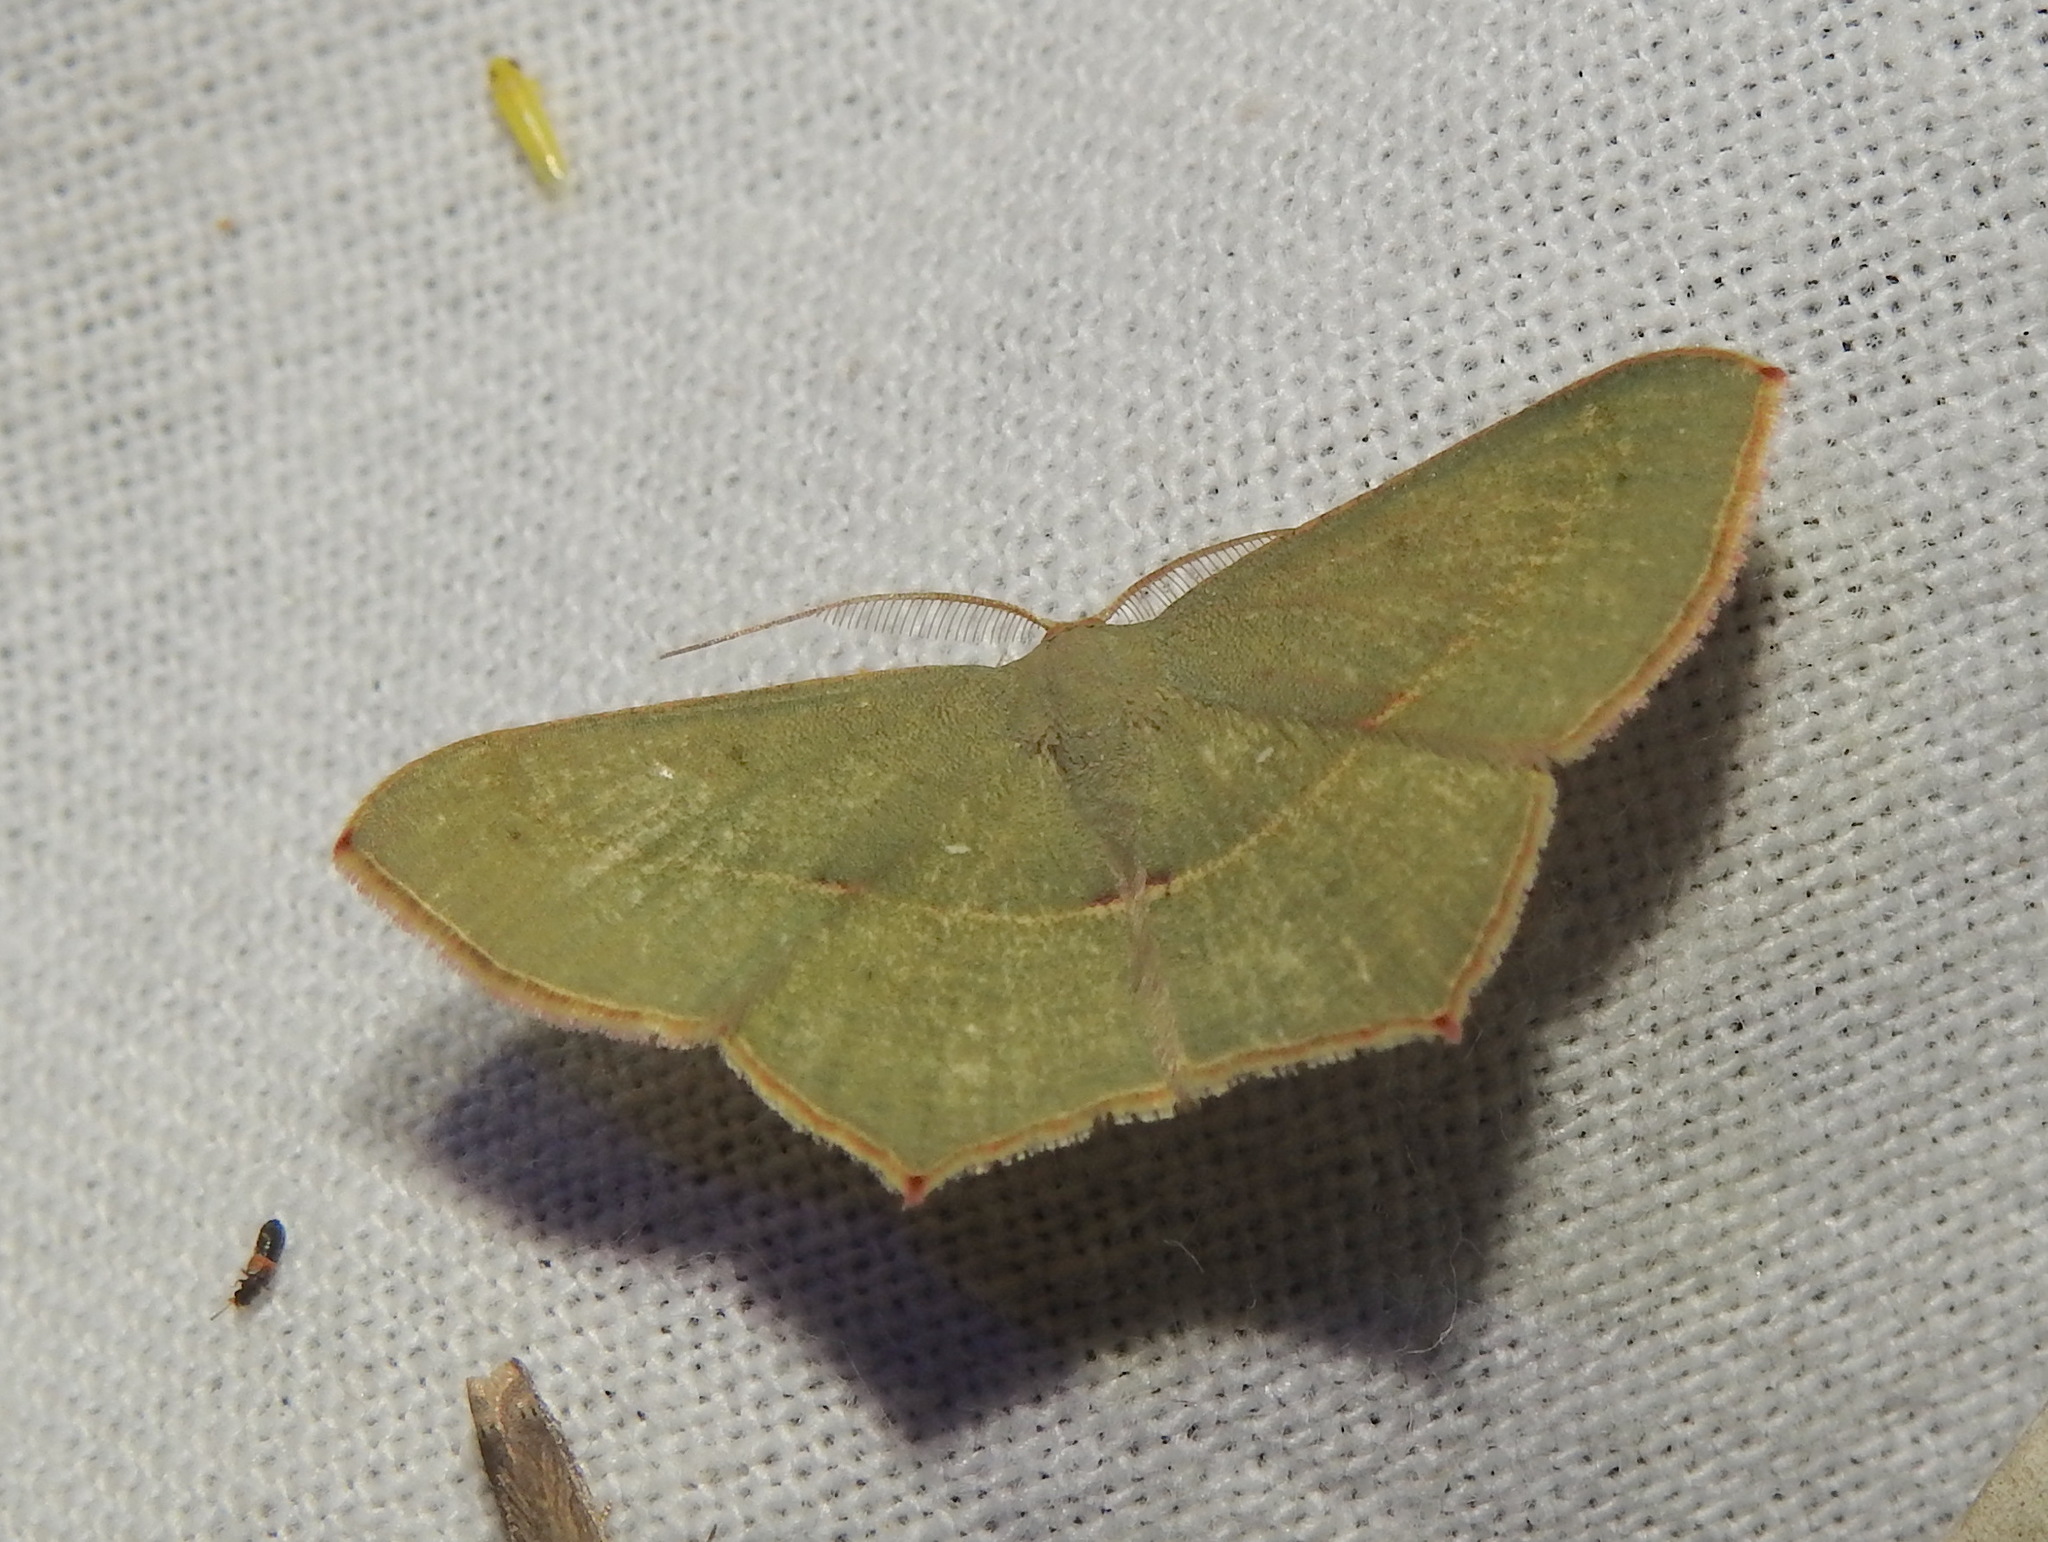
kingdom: Animalia
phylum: Arthropoda
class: Insecta
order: Lepidoptera
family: Geometridae
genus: Traminda
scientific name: Traminda mundissima
